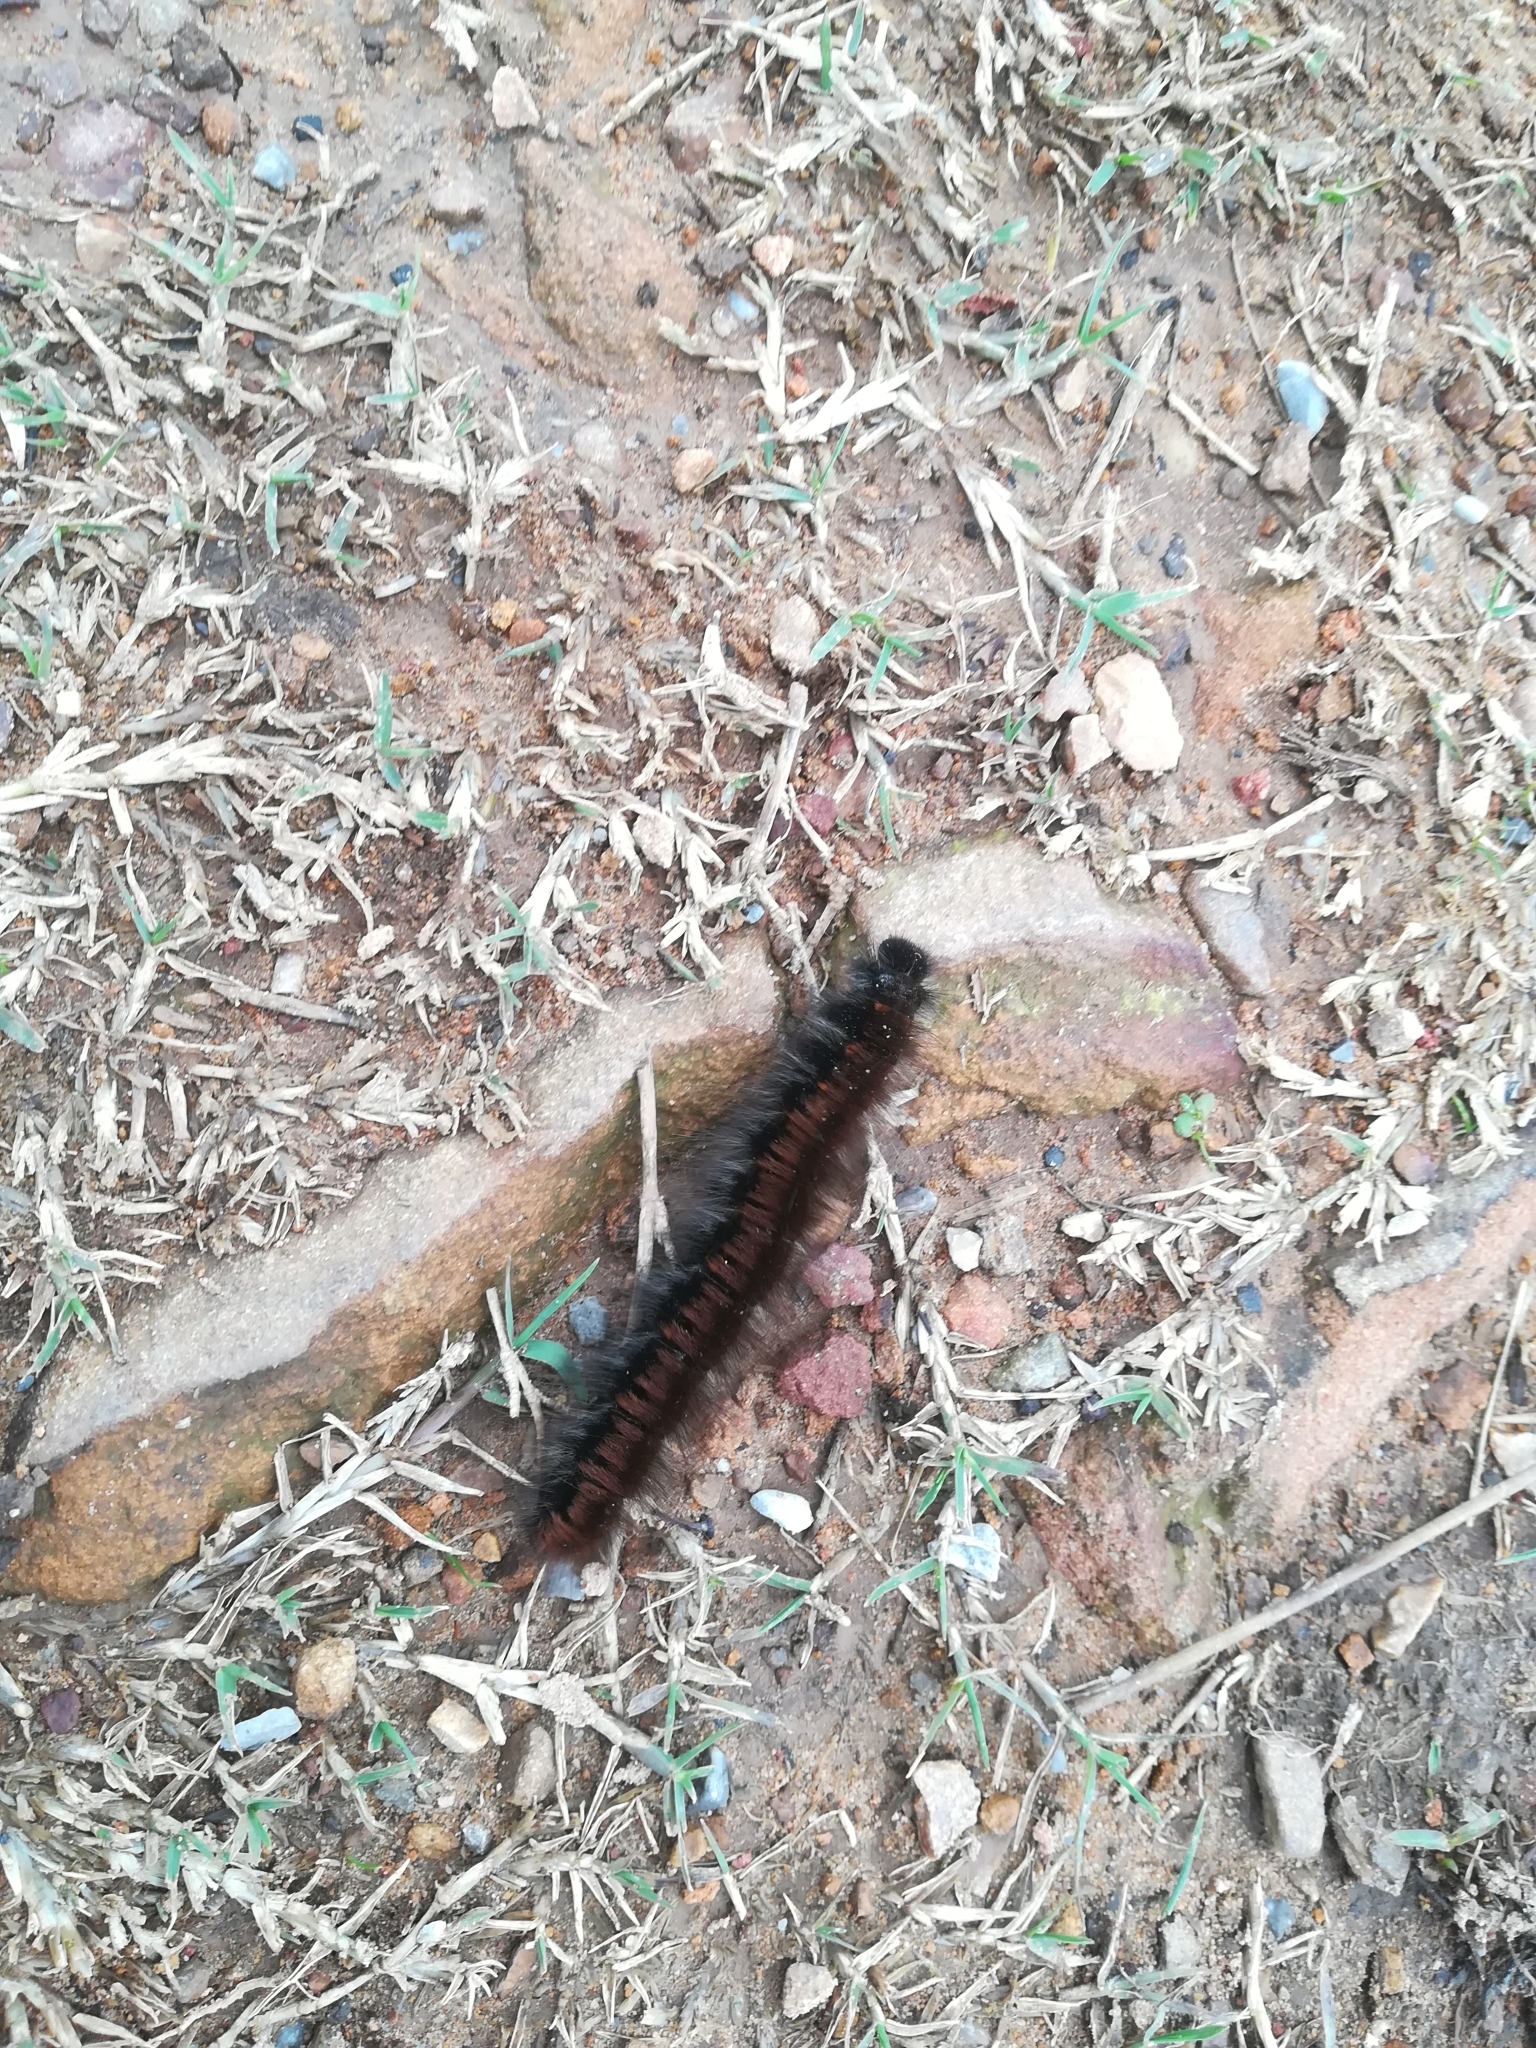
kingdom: Animalia
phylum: Arthropoda
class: Insecta
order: Lepidoptera
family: Lasiocampidae
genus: Macrothylacia
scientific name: Macrothylacia rubi
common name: Fox moth
